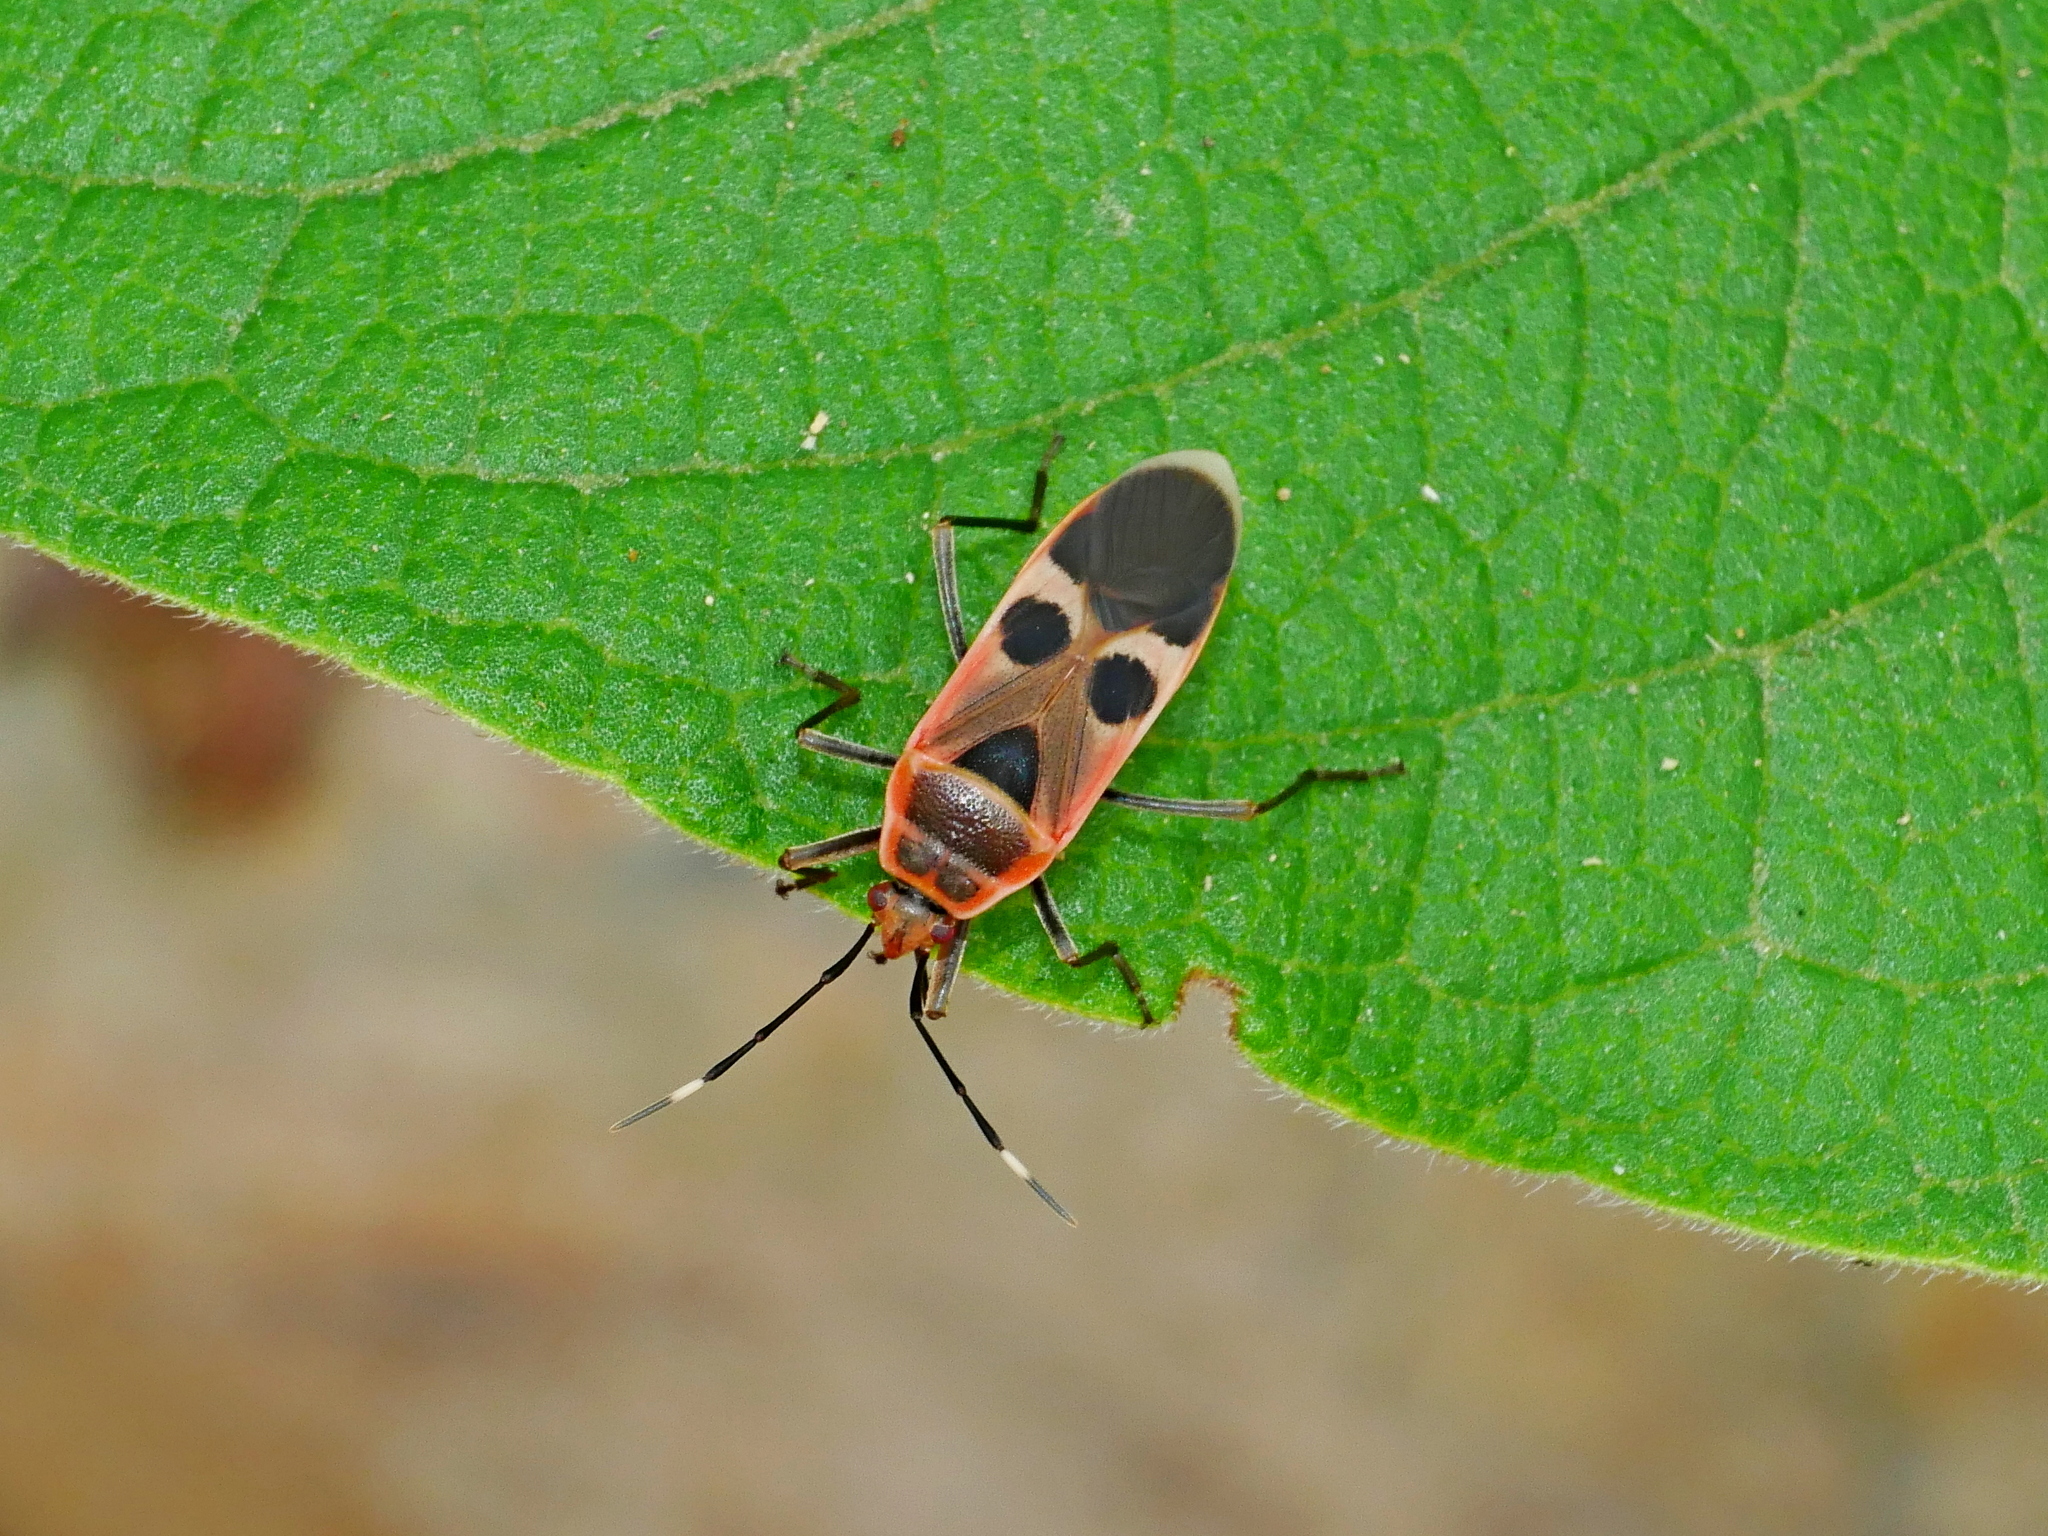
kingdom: Animalia
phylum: Arthropoda
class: Insecta
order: Hemiptera
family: Largidae
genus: Physopelta
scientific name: Physopelta gutta
